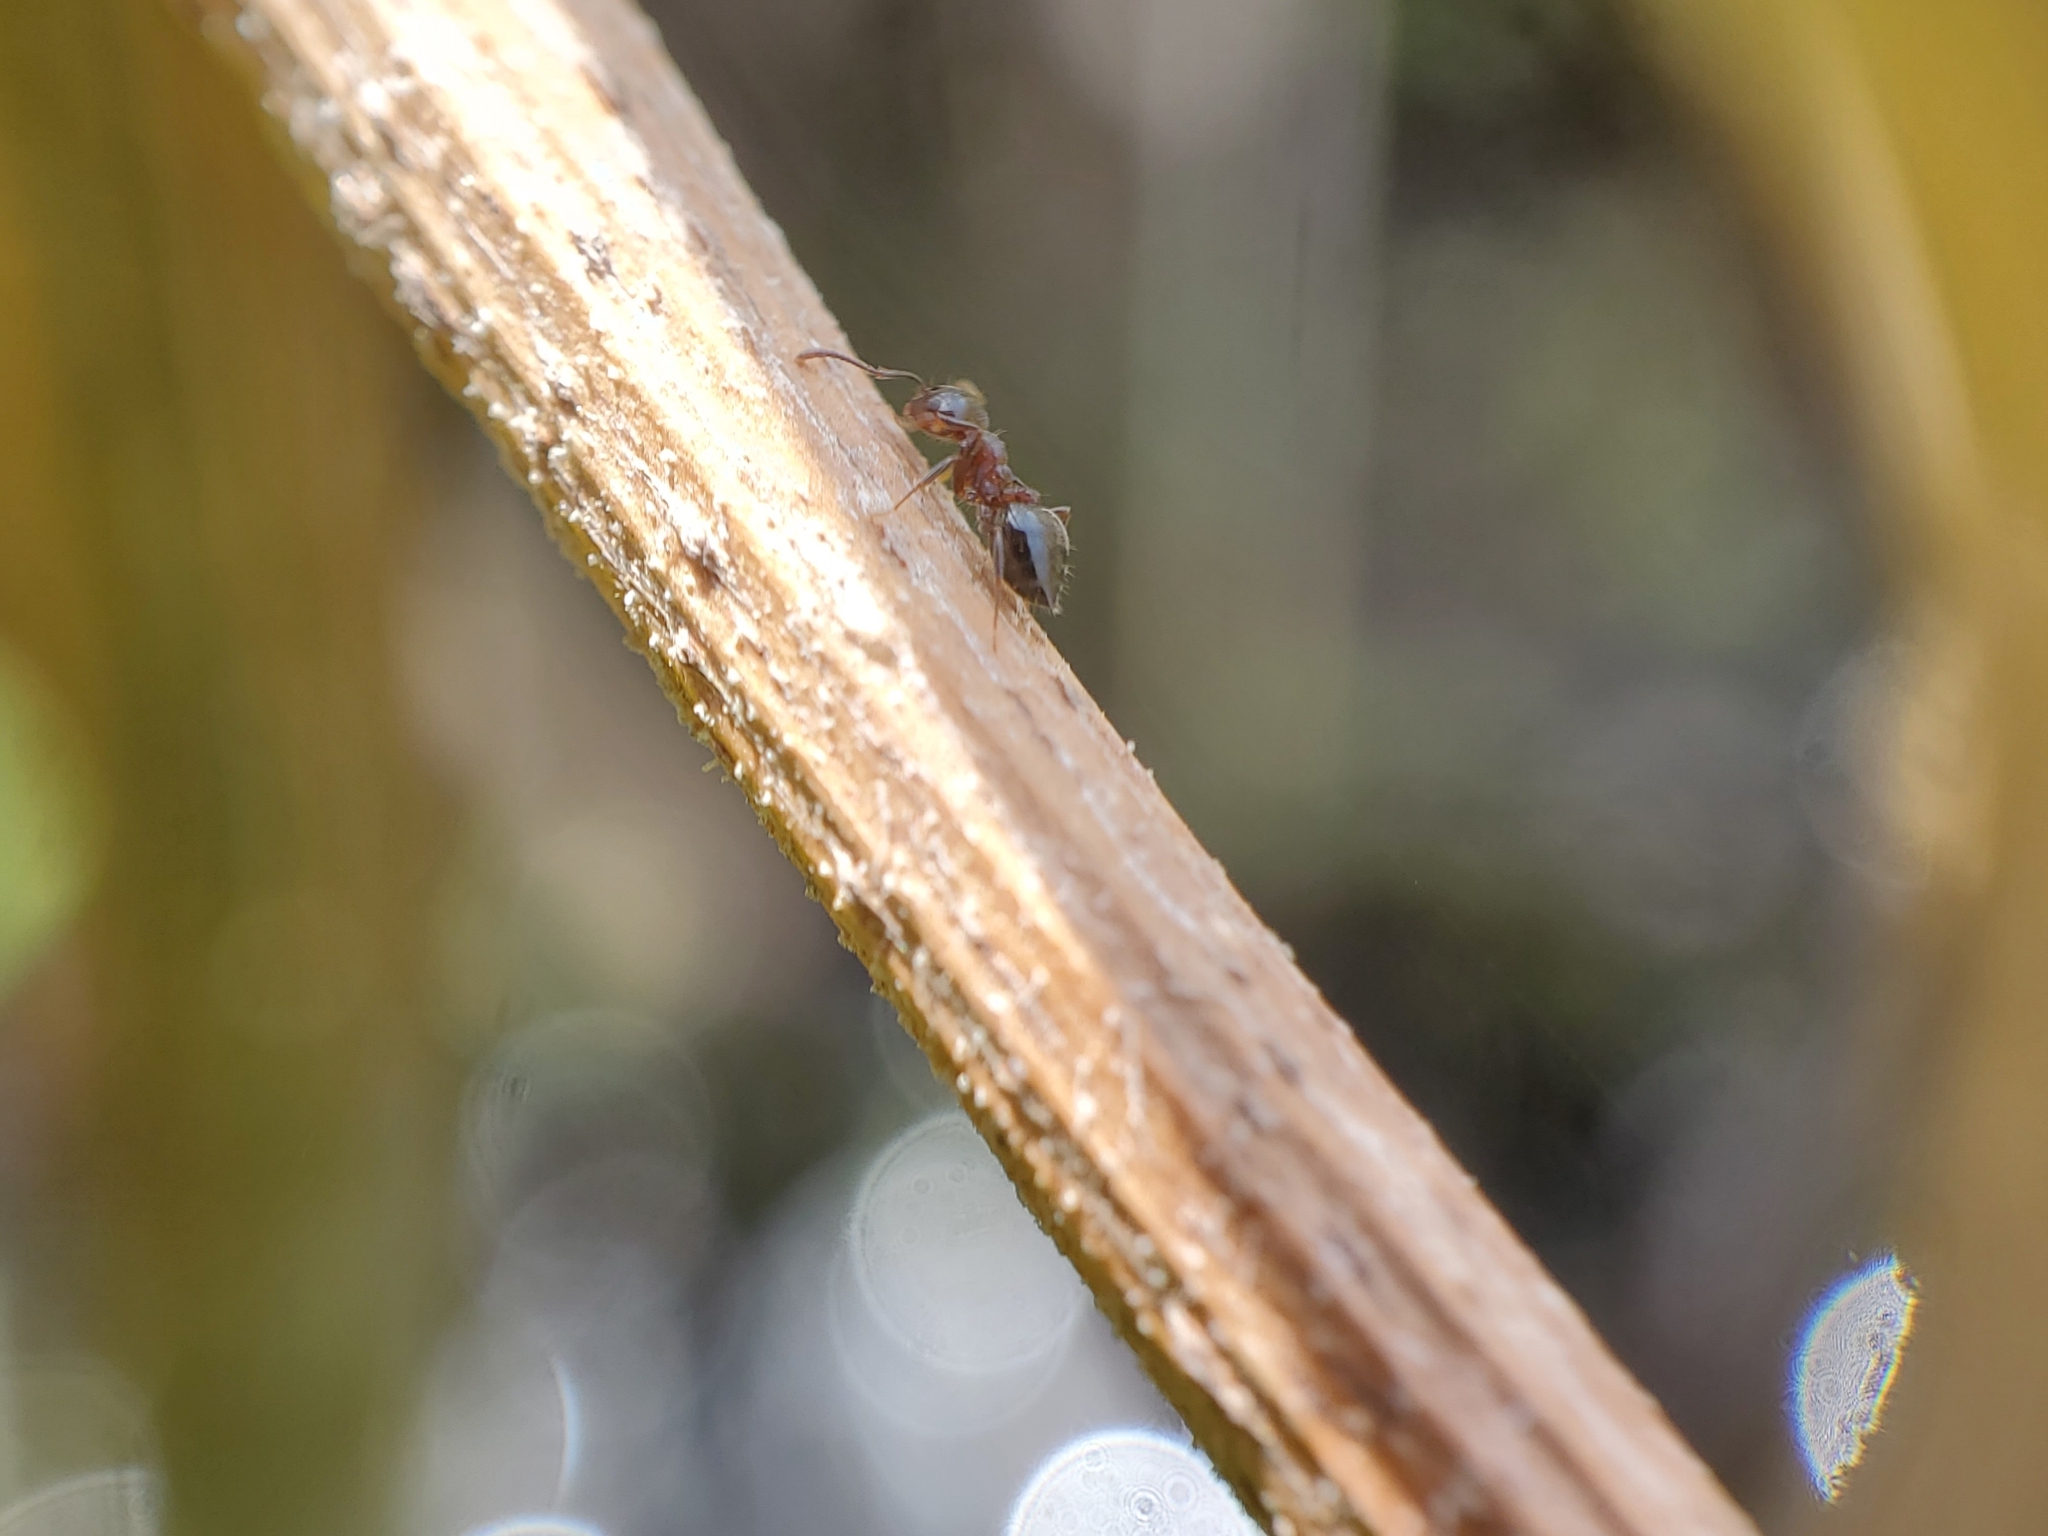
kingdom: Animalia
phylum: Arthropoda
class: Insecta
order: Hymenoptera
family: Formicidae
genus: Crematogaster
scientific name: Crematogaster cerasi
